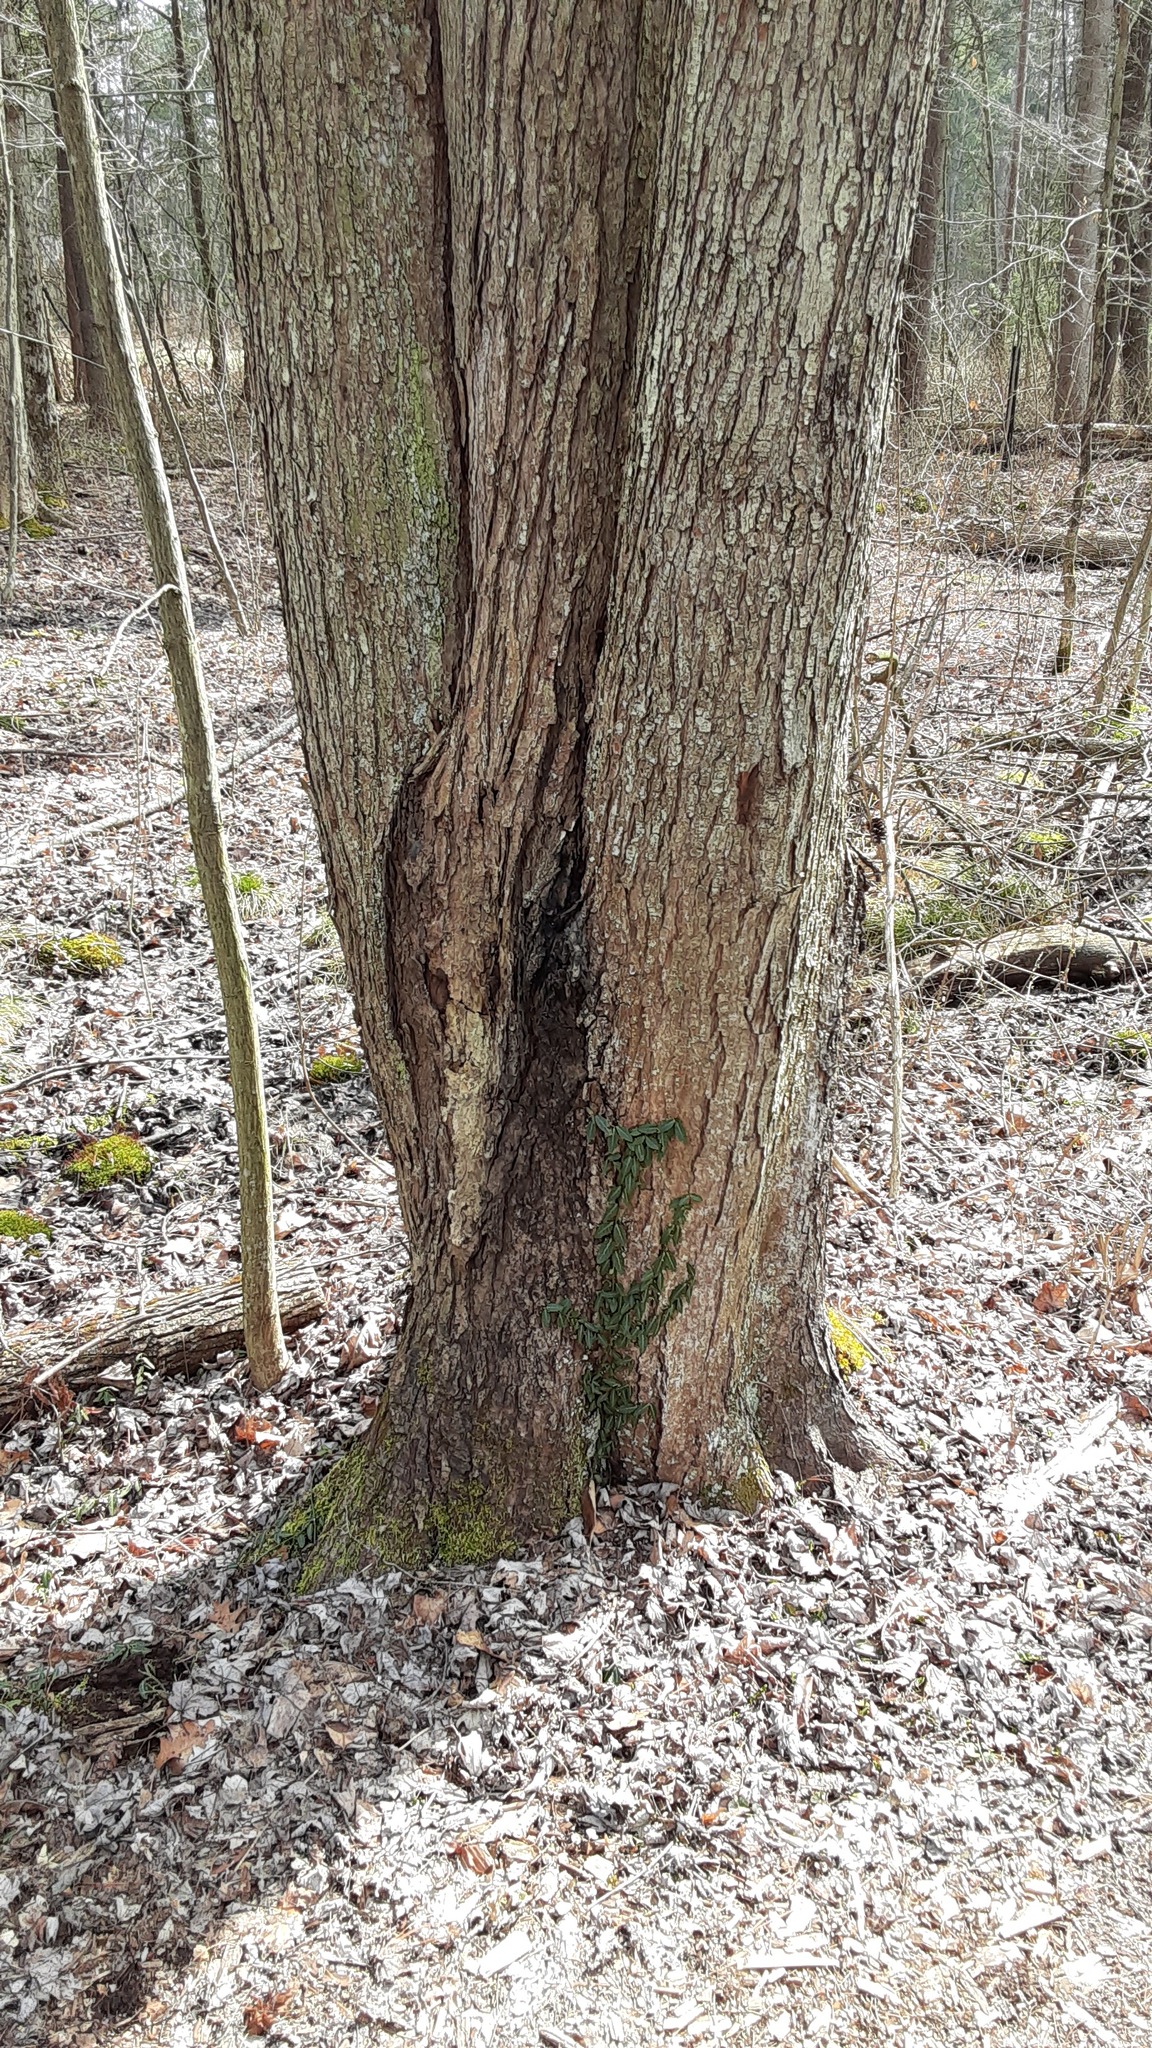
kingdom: Plantae
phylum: Tracheophyta
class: Magnoliopsida
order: Celastrales
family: Celastraceae
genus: Euonymus
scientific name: Euonymus fortunei
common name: Climbing euonymus
